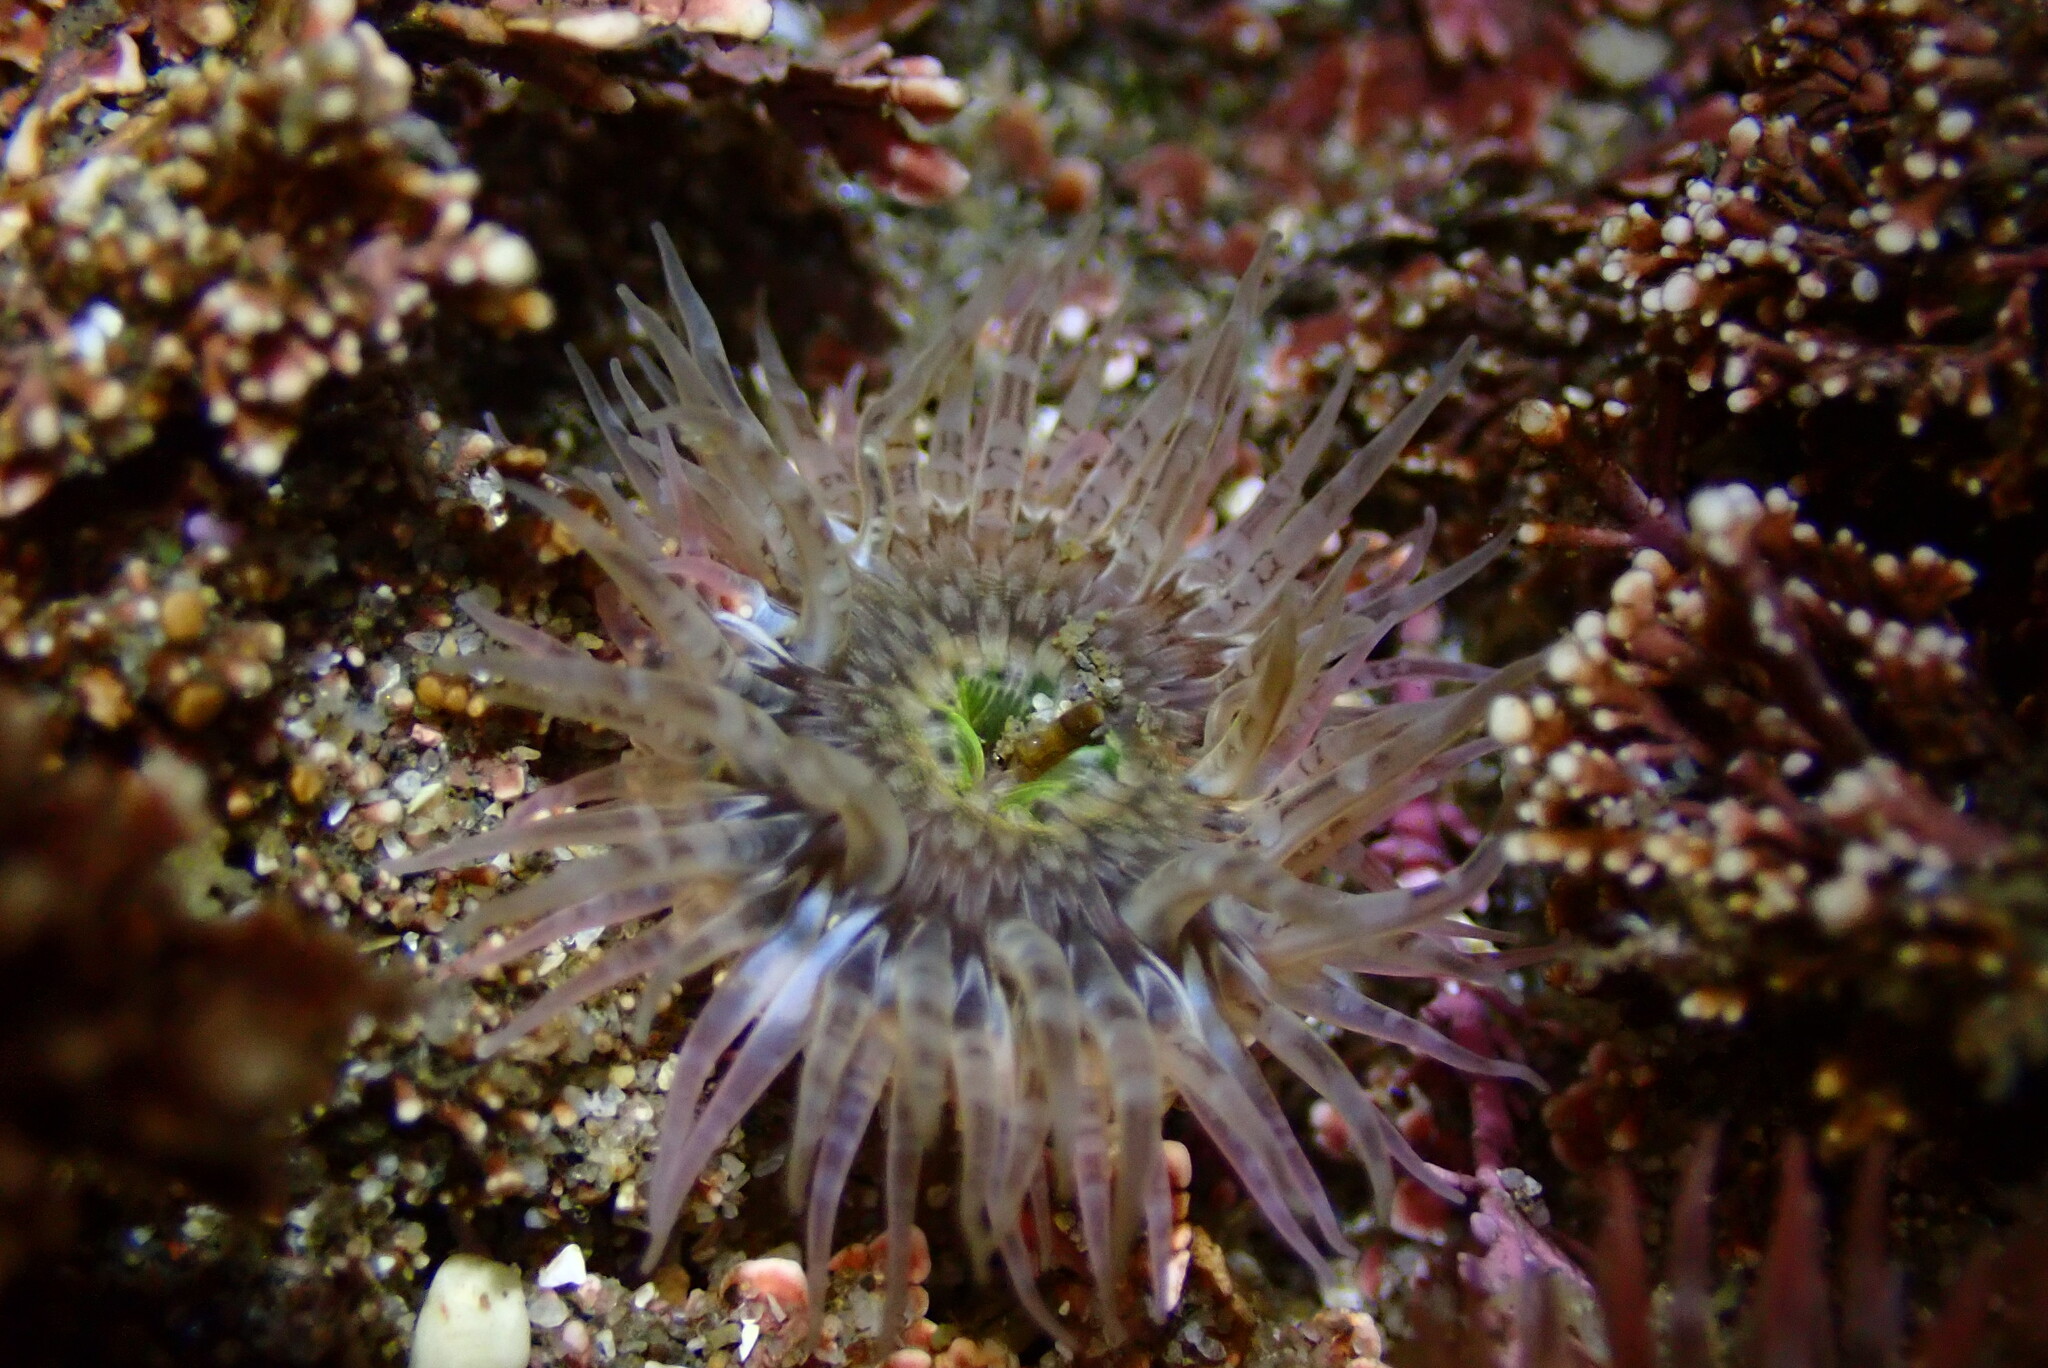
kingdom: Animalia
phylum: Cnidaria
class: Anthozoa
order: Actiniaria
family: Actiniidae
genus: Anthopleura
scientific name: Anthopleura artemisia
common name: Buried sea anemone
